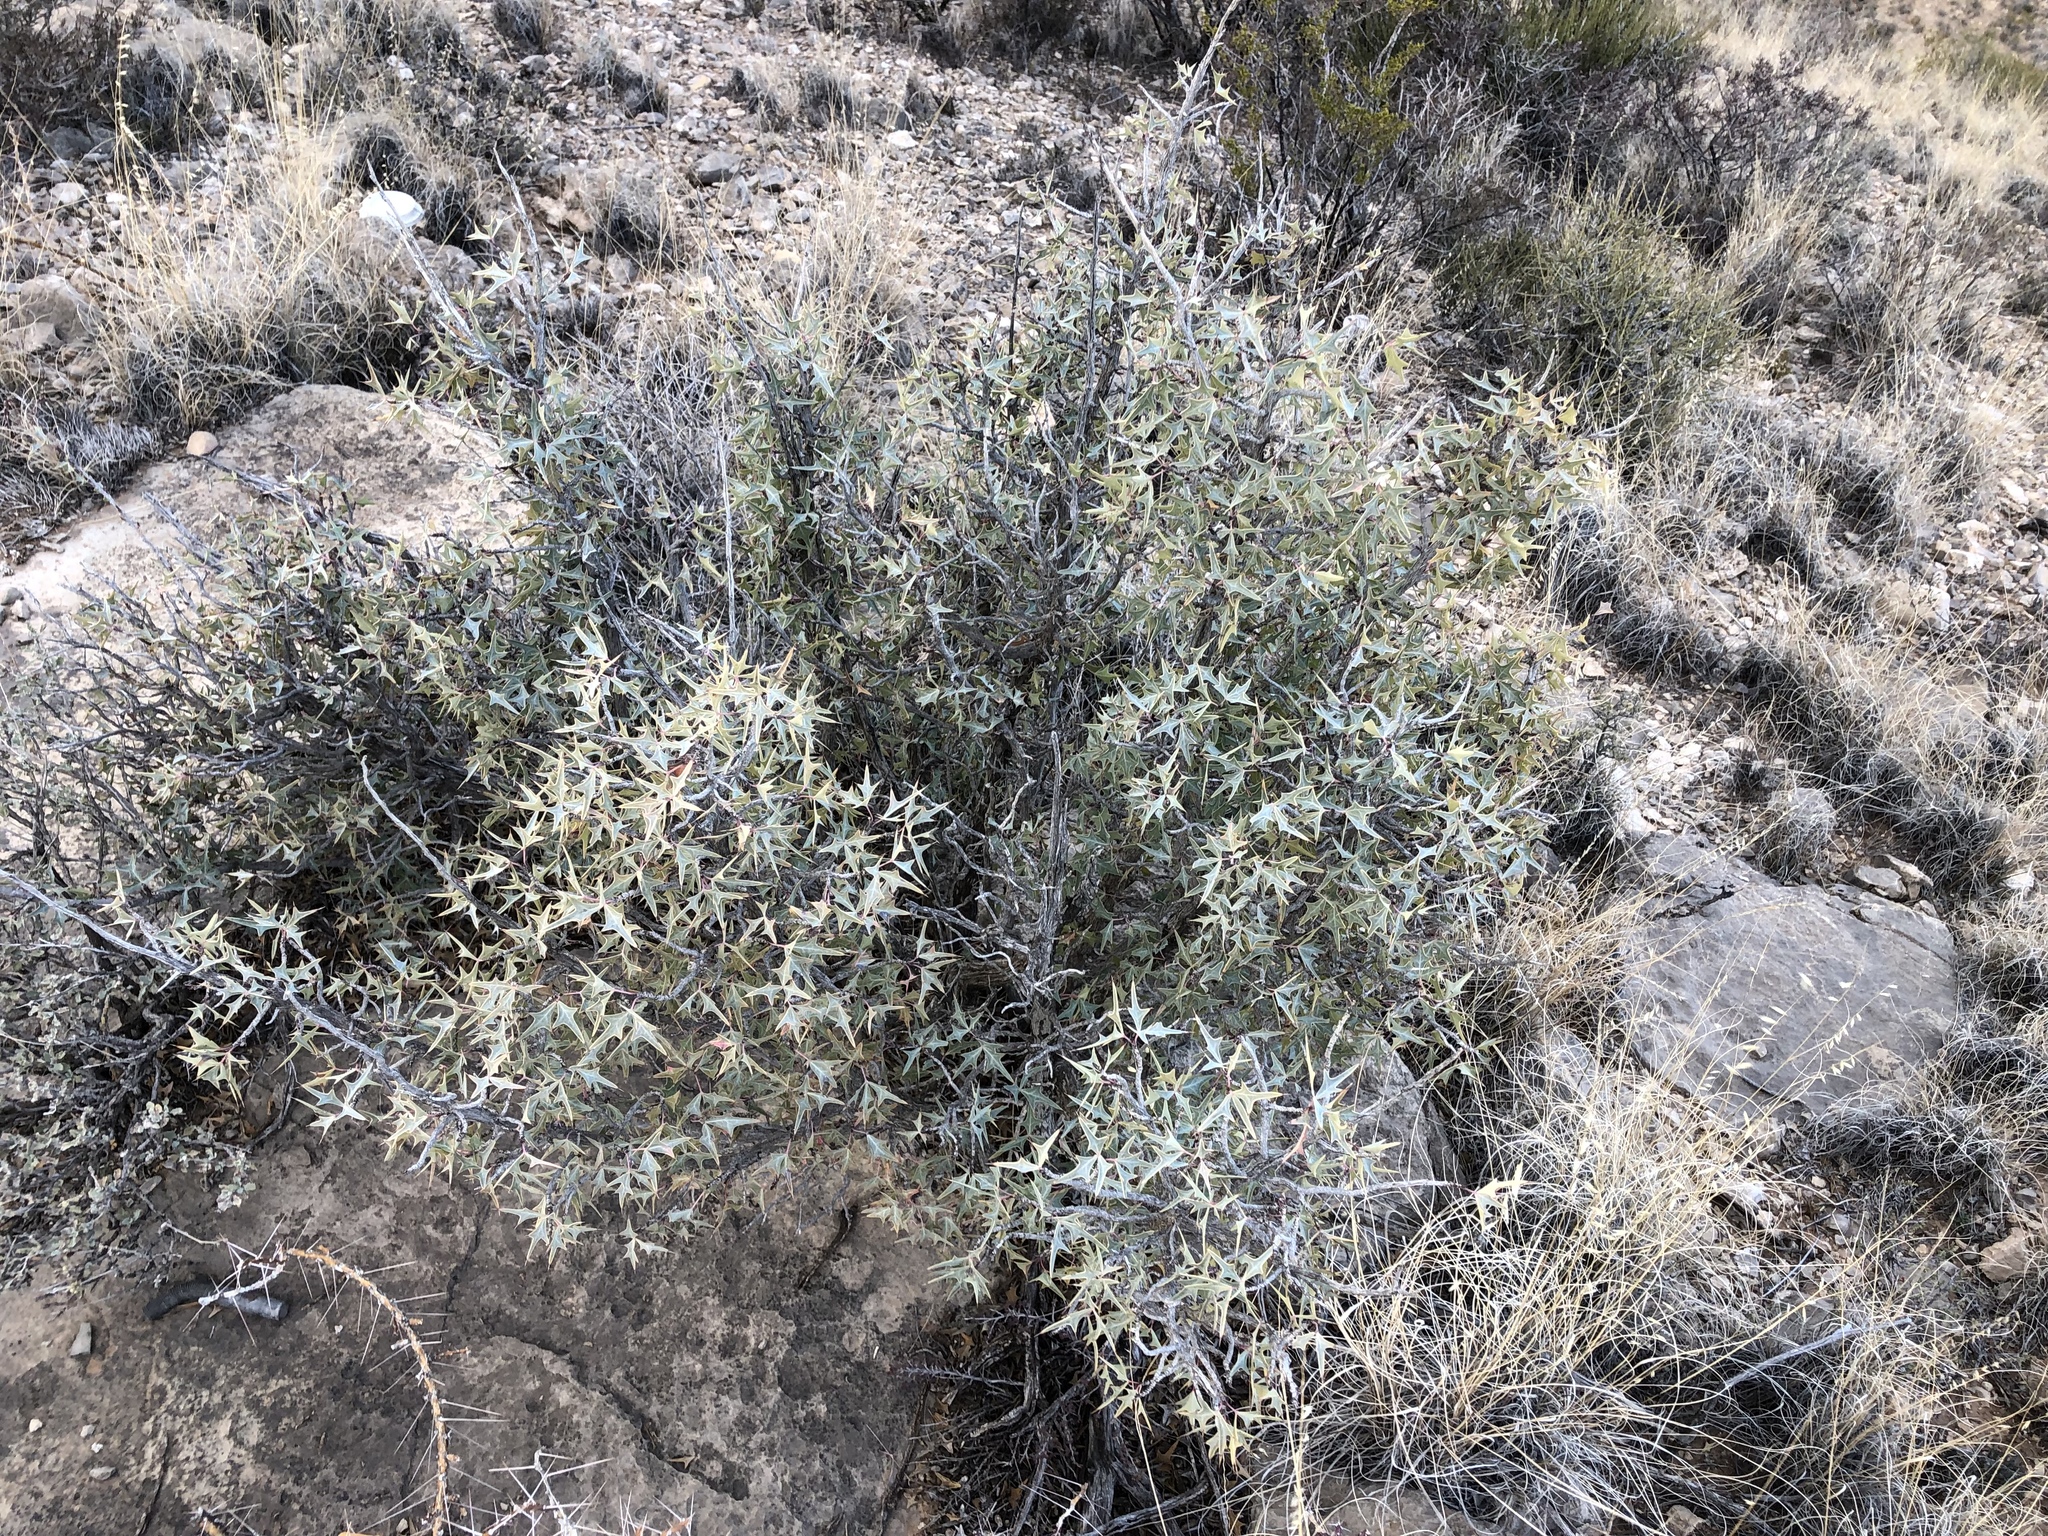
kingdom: Plantae
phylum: Tracheophyta
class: Magnoliopsida
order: Ranunculales
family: Berberidaceae
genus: Alloberberis
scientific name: Alloberberis trifoliolata
